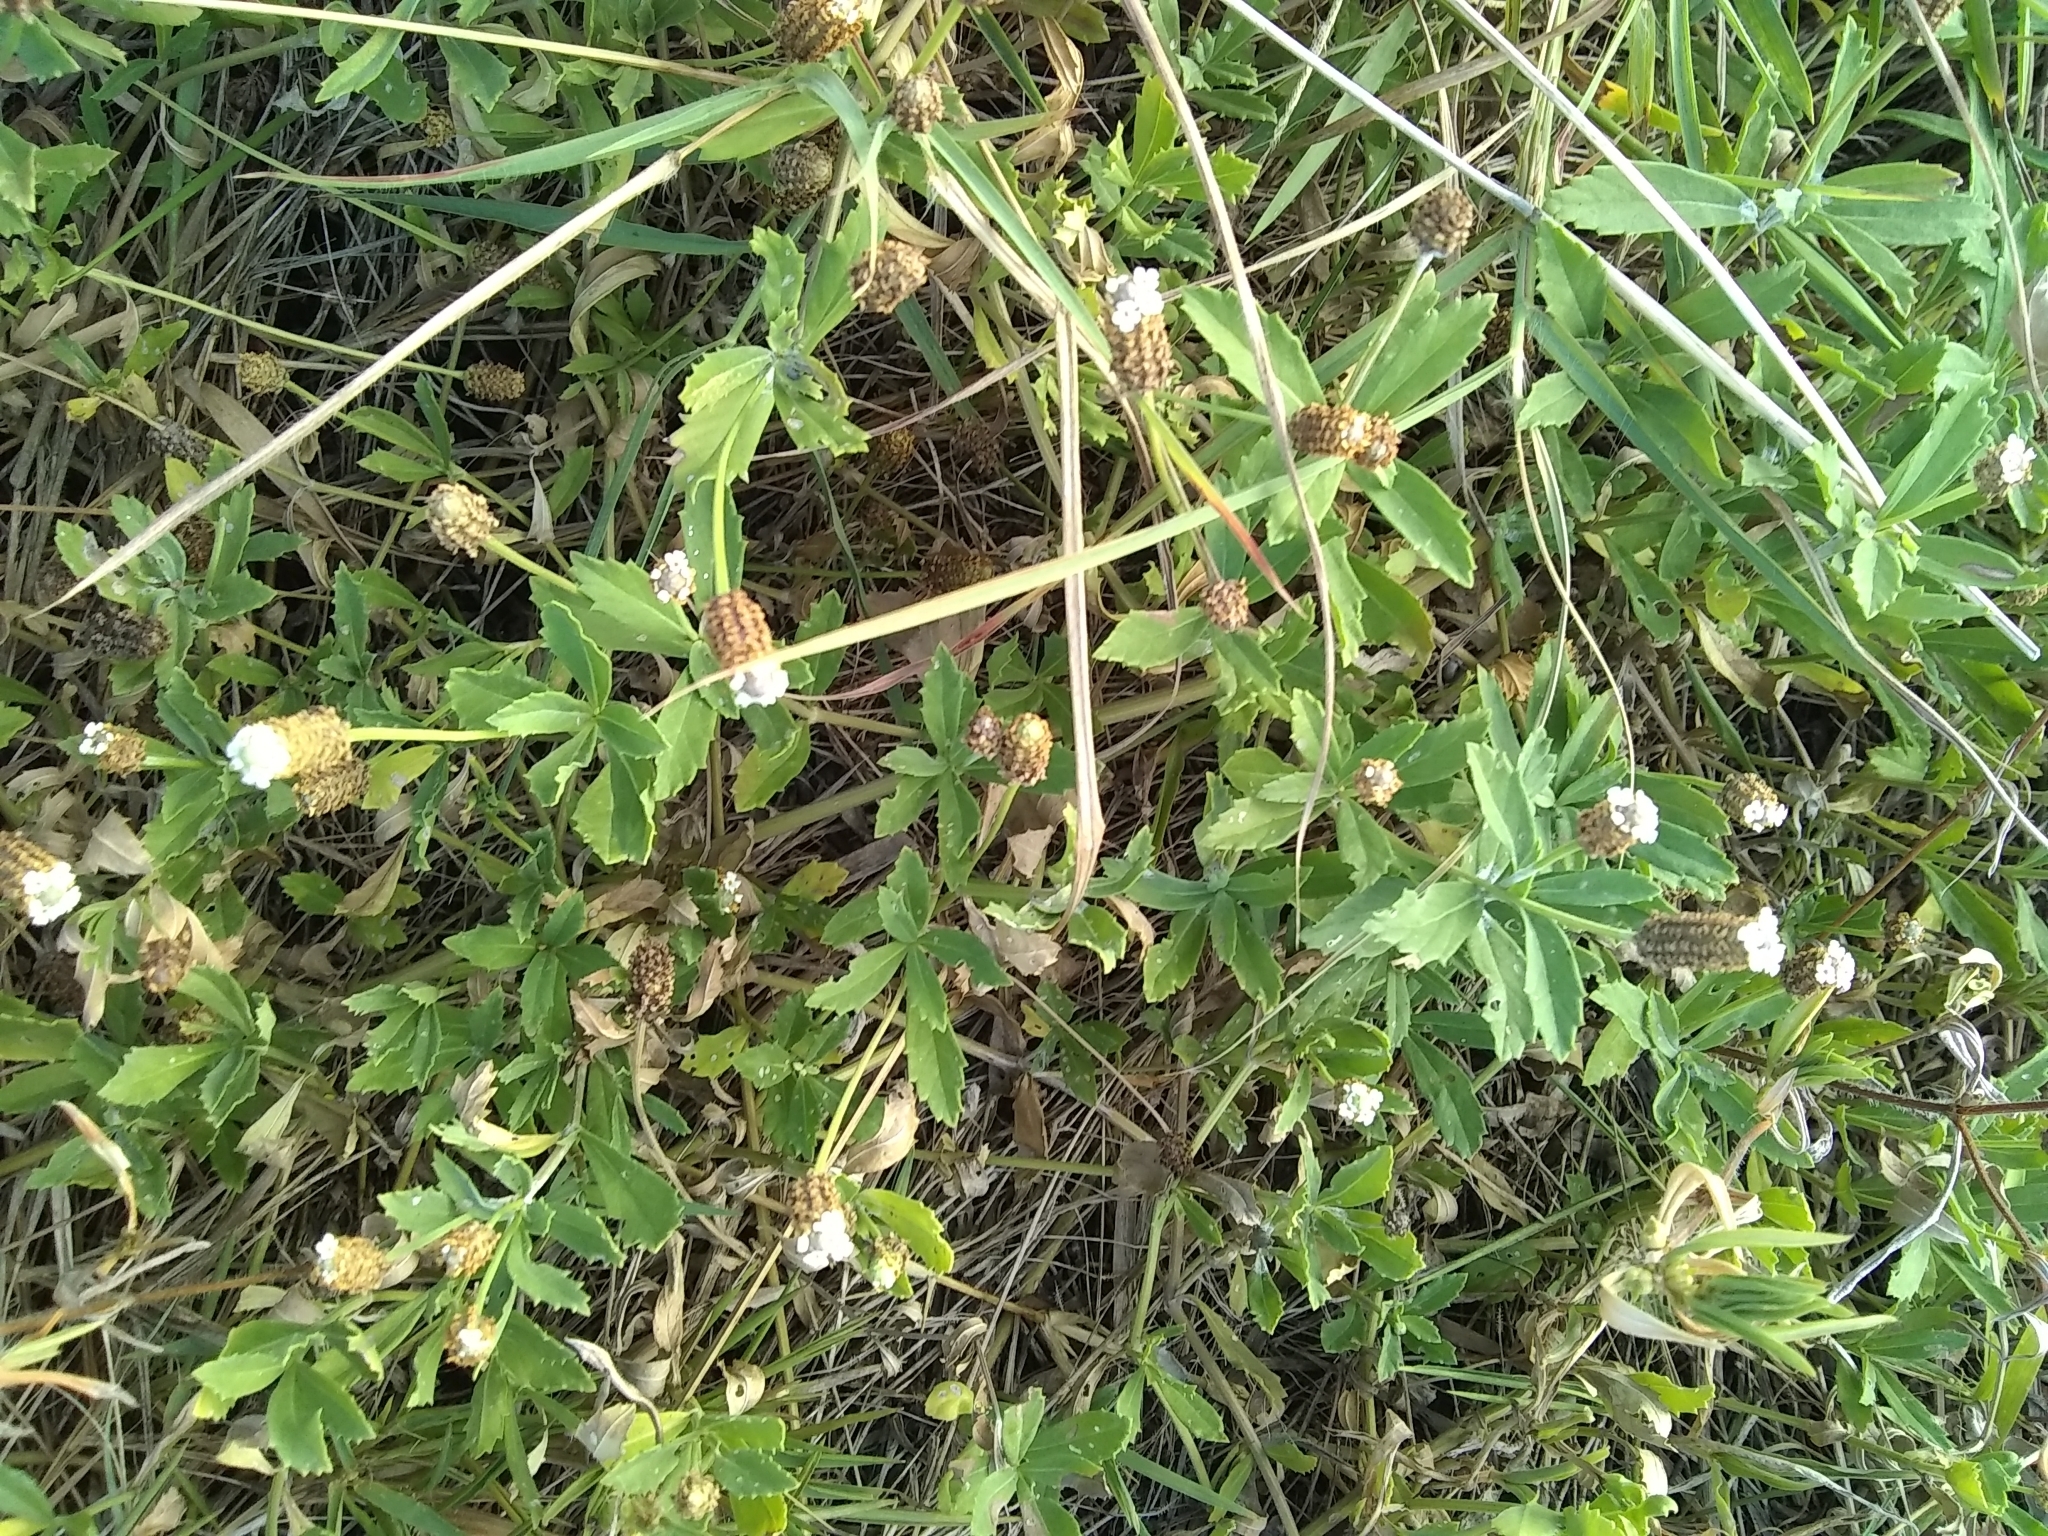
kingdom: Plantae
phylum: Tracheophyta
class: Magnoliopsida
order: Lamiales
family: Verbenaceae
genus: Phyla
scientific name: Phyla nodiflora
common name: Frogfruit
